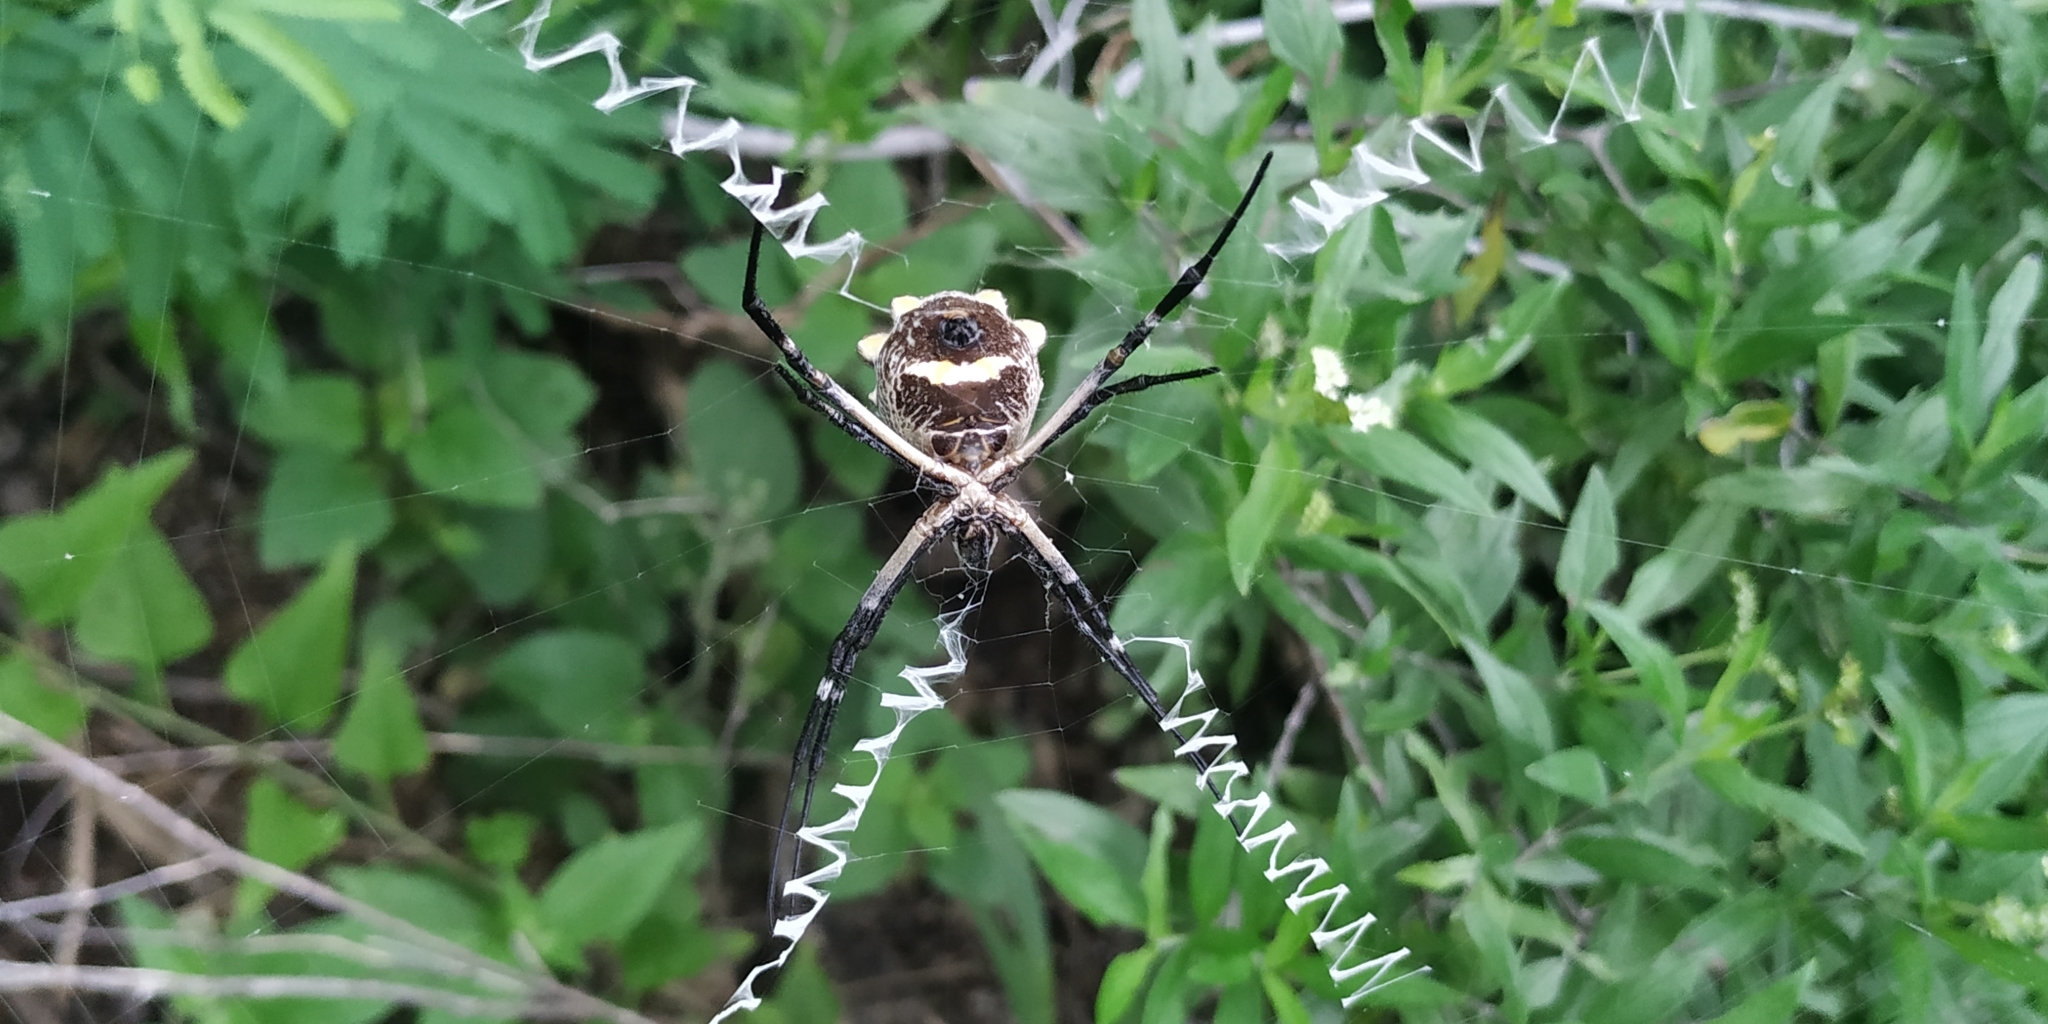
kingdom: Animalia
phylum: Arthropoda
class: Arachnida
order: Araneae
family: Araneidae
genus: Argiope
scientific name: Argiope argentata
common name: Orb weavers
